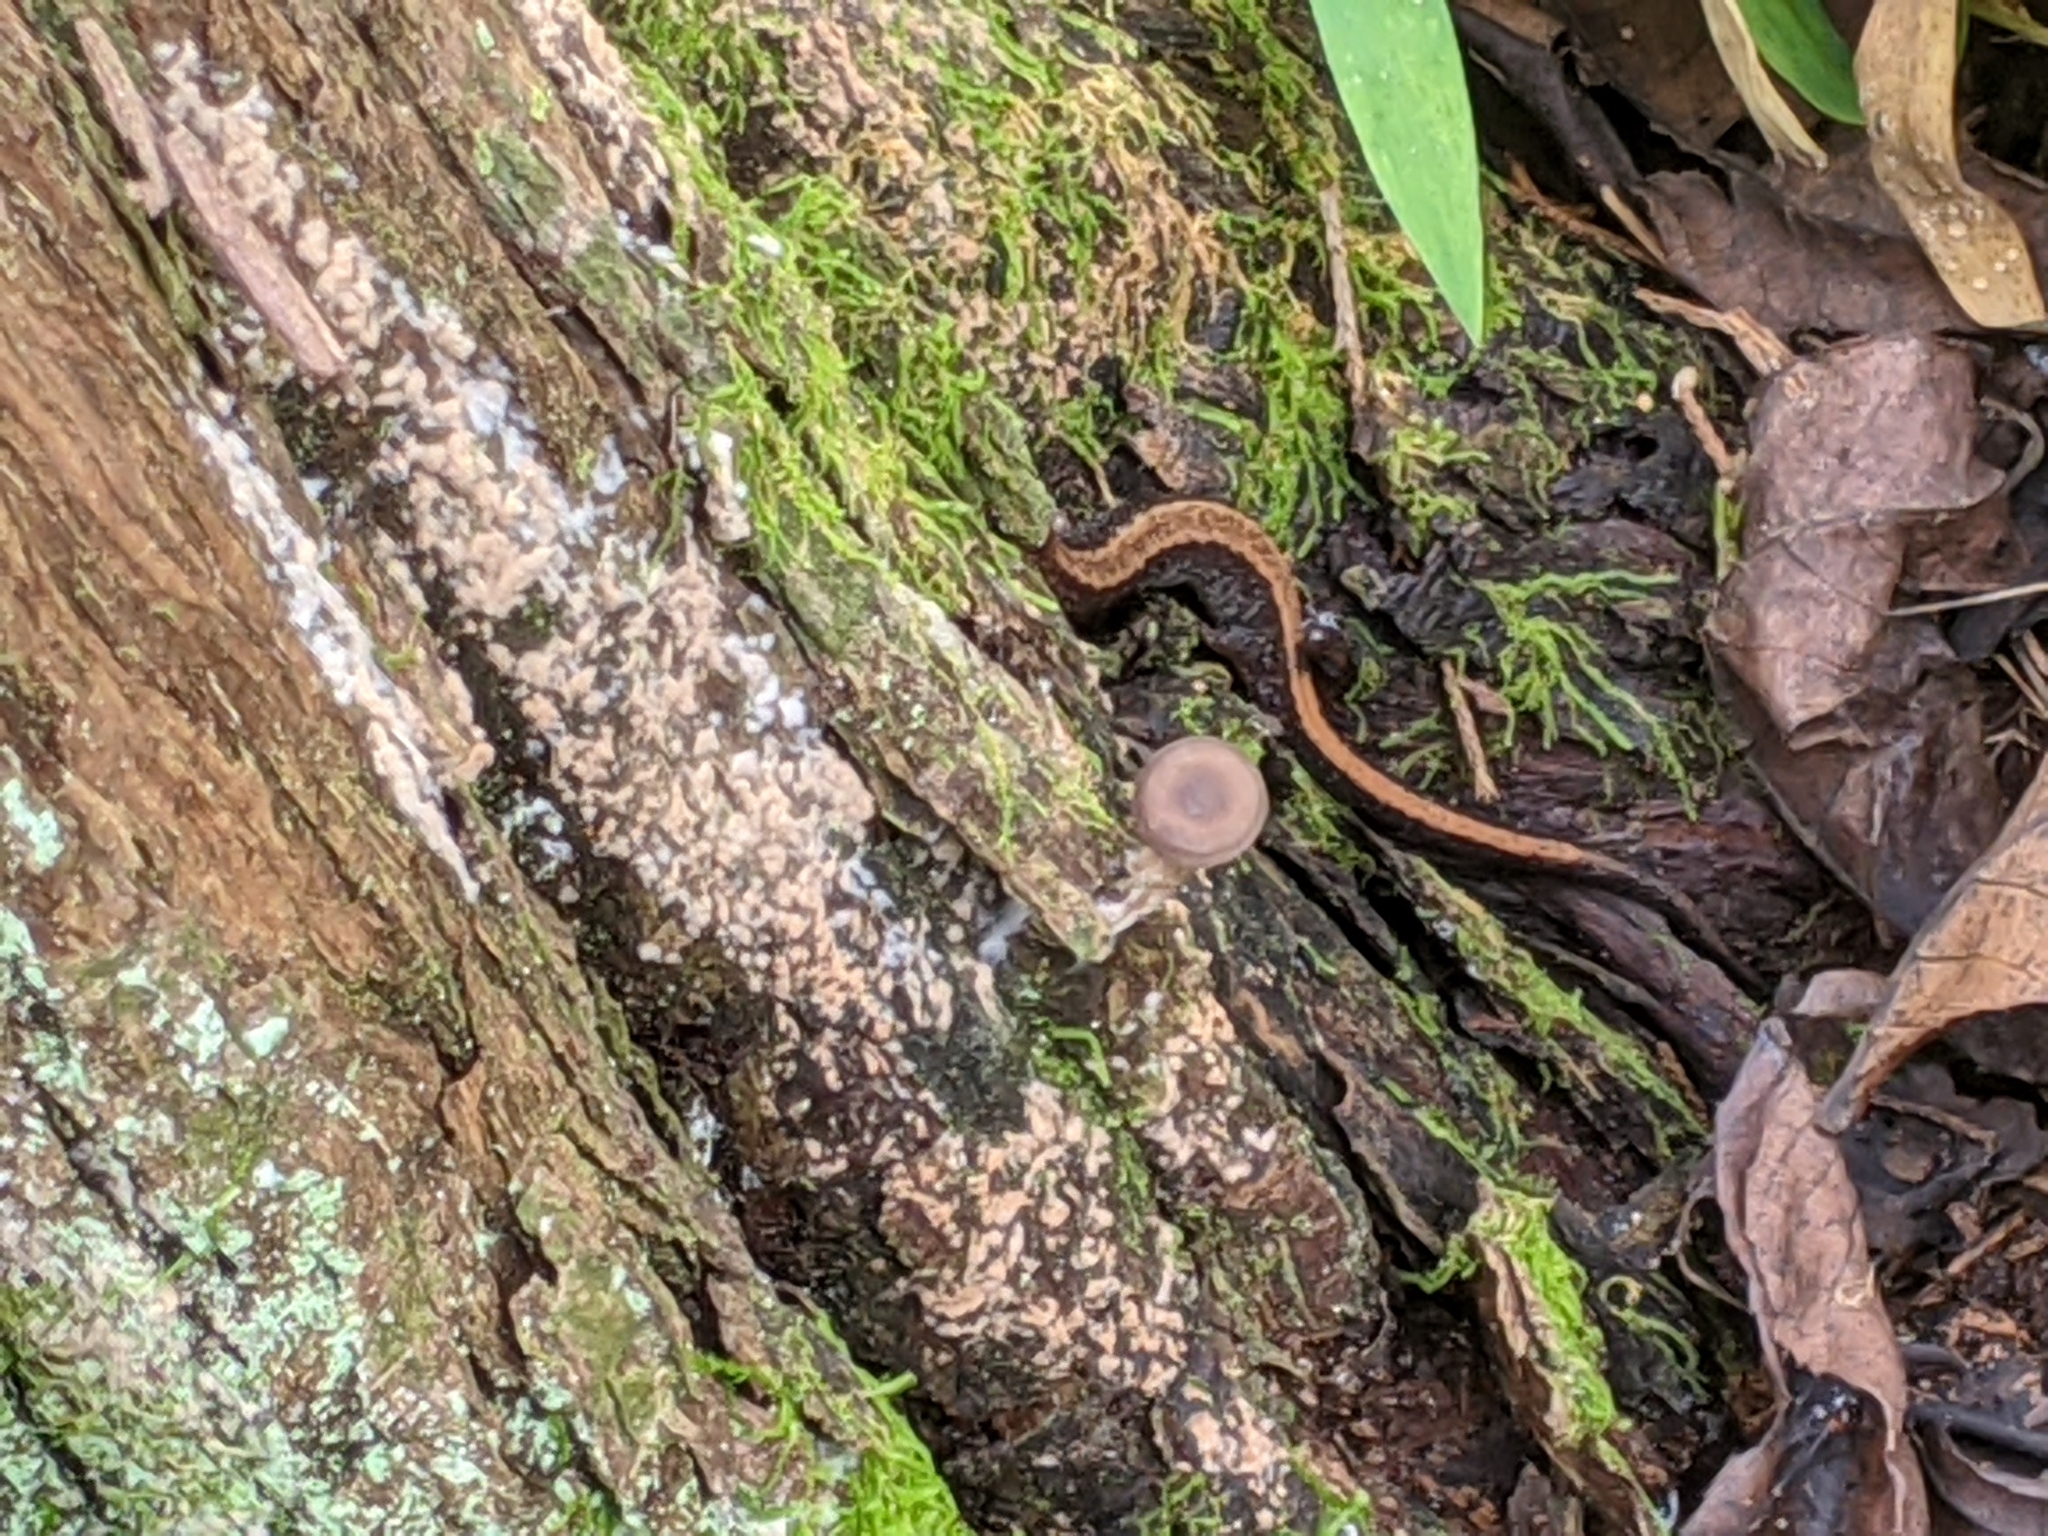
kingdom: Animalia
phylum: Chordata
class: Amphibia
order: Caudata
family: Plethodontidae
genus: Plethodon
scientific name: Plethodon cinereus
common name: Redback salamander
